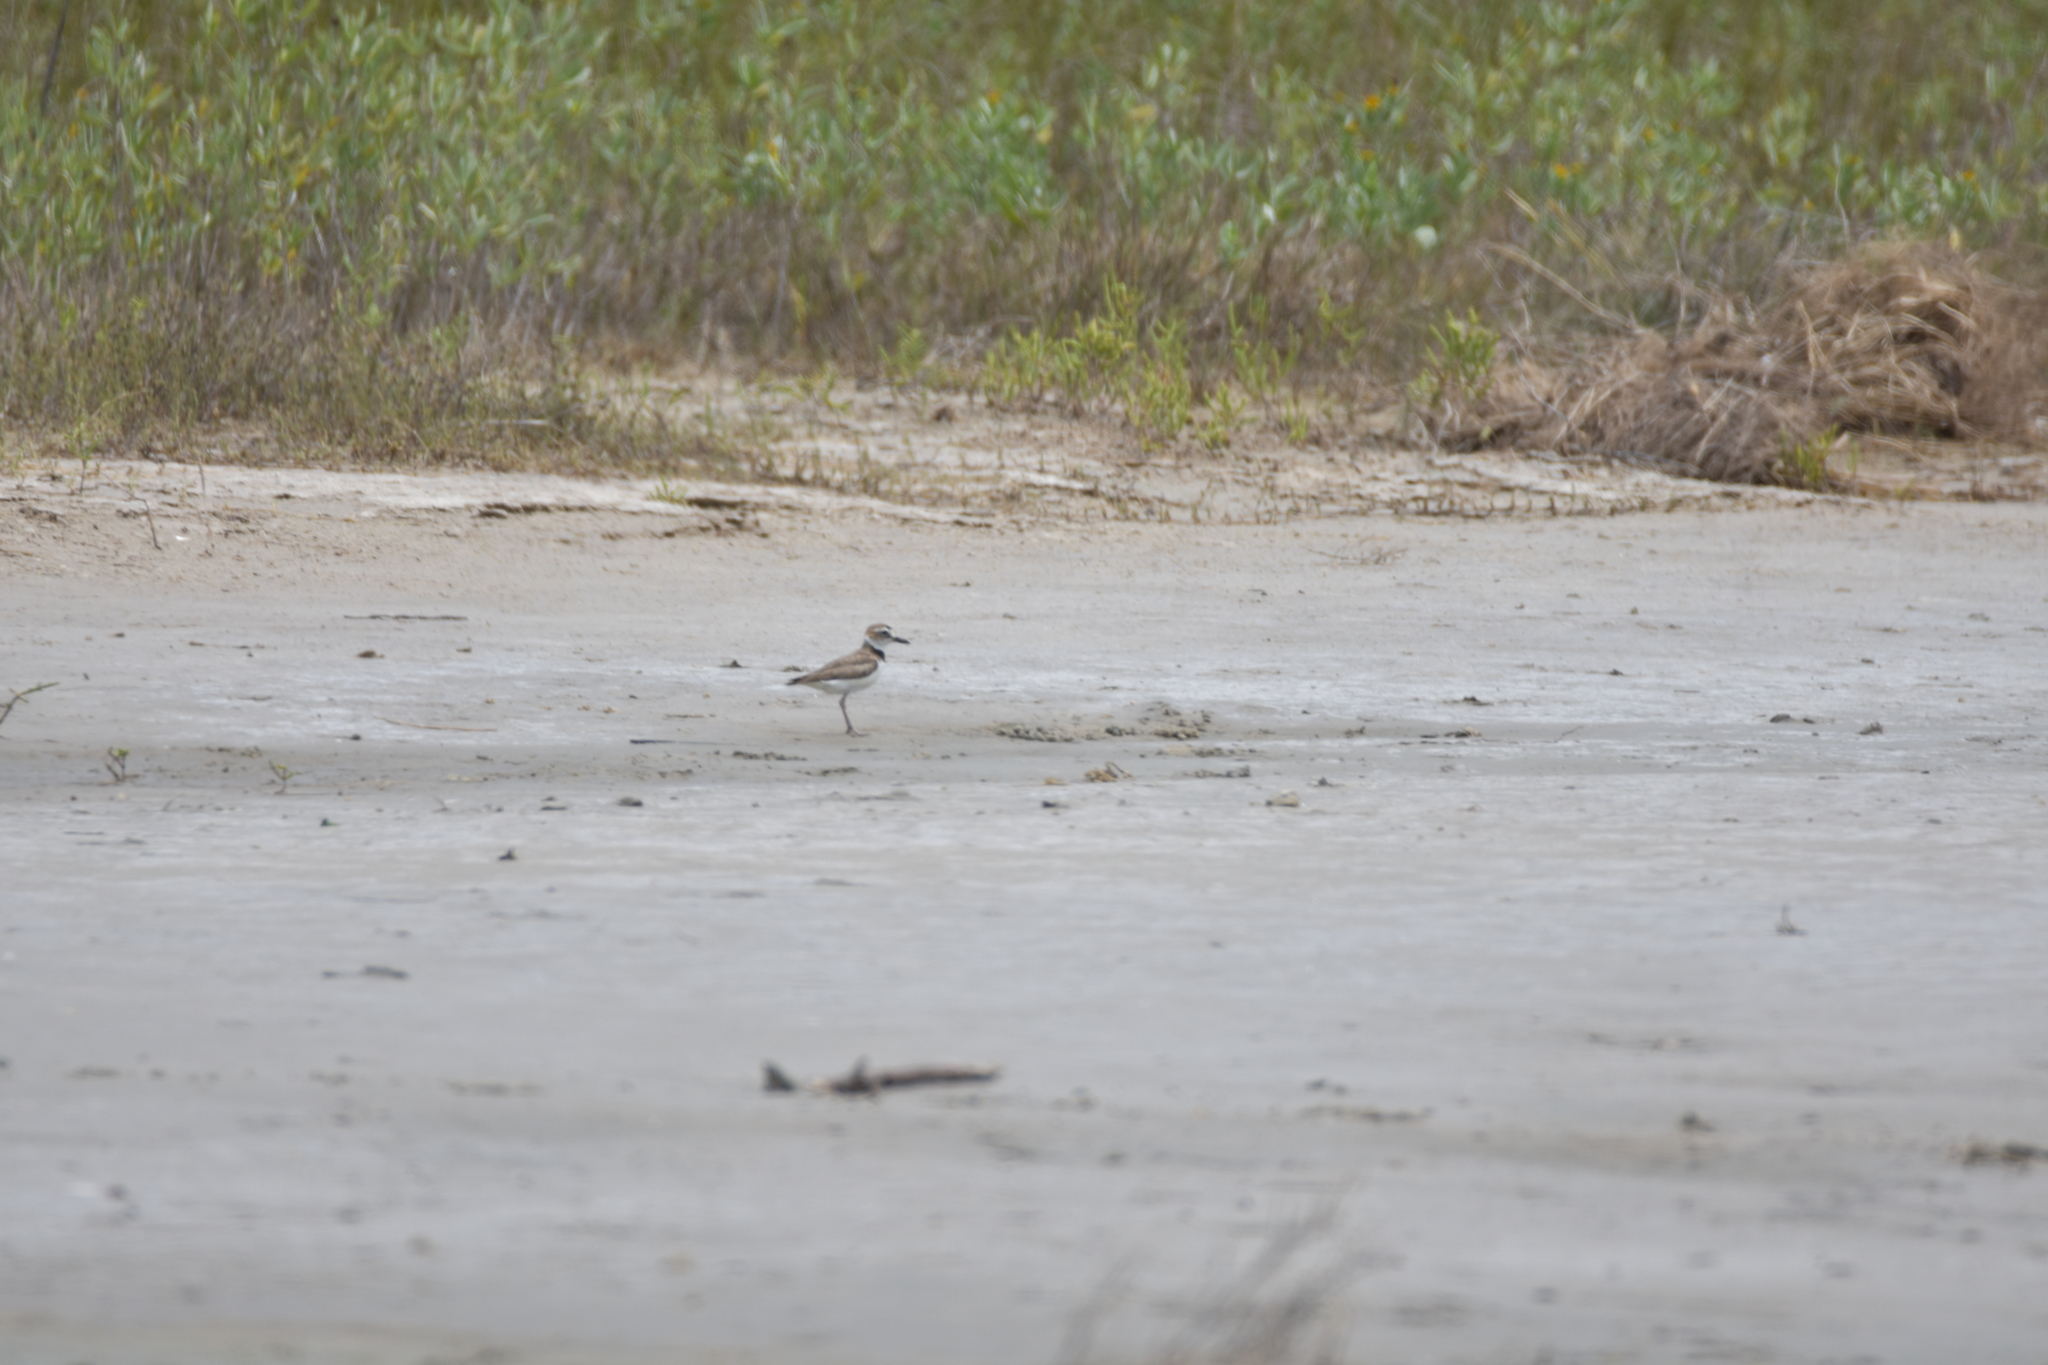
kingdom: Animalia
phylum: Chordata
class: Aves
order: Charadriiformes
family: Charadriidae
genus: Anarhynchus
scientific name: Anarhynchus
